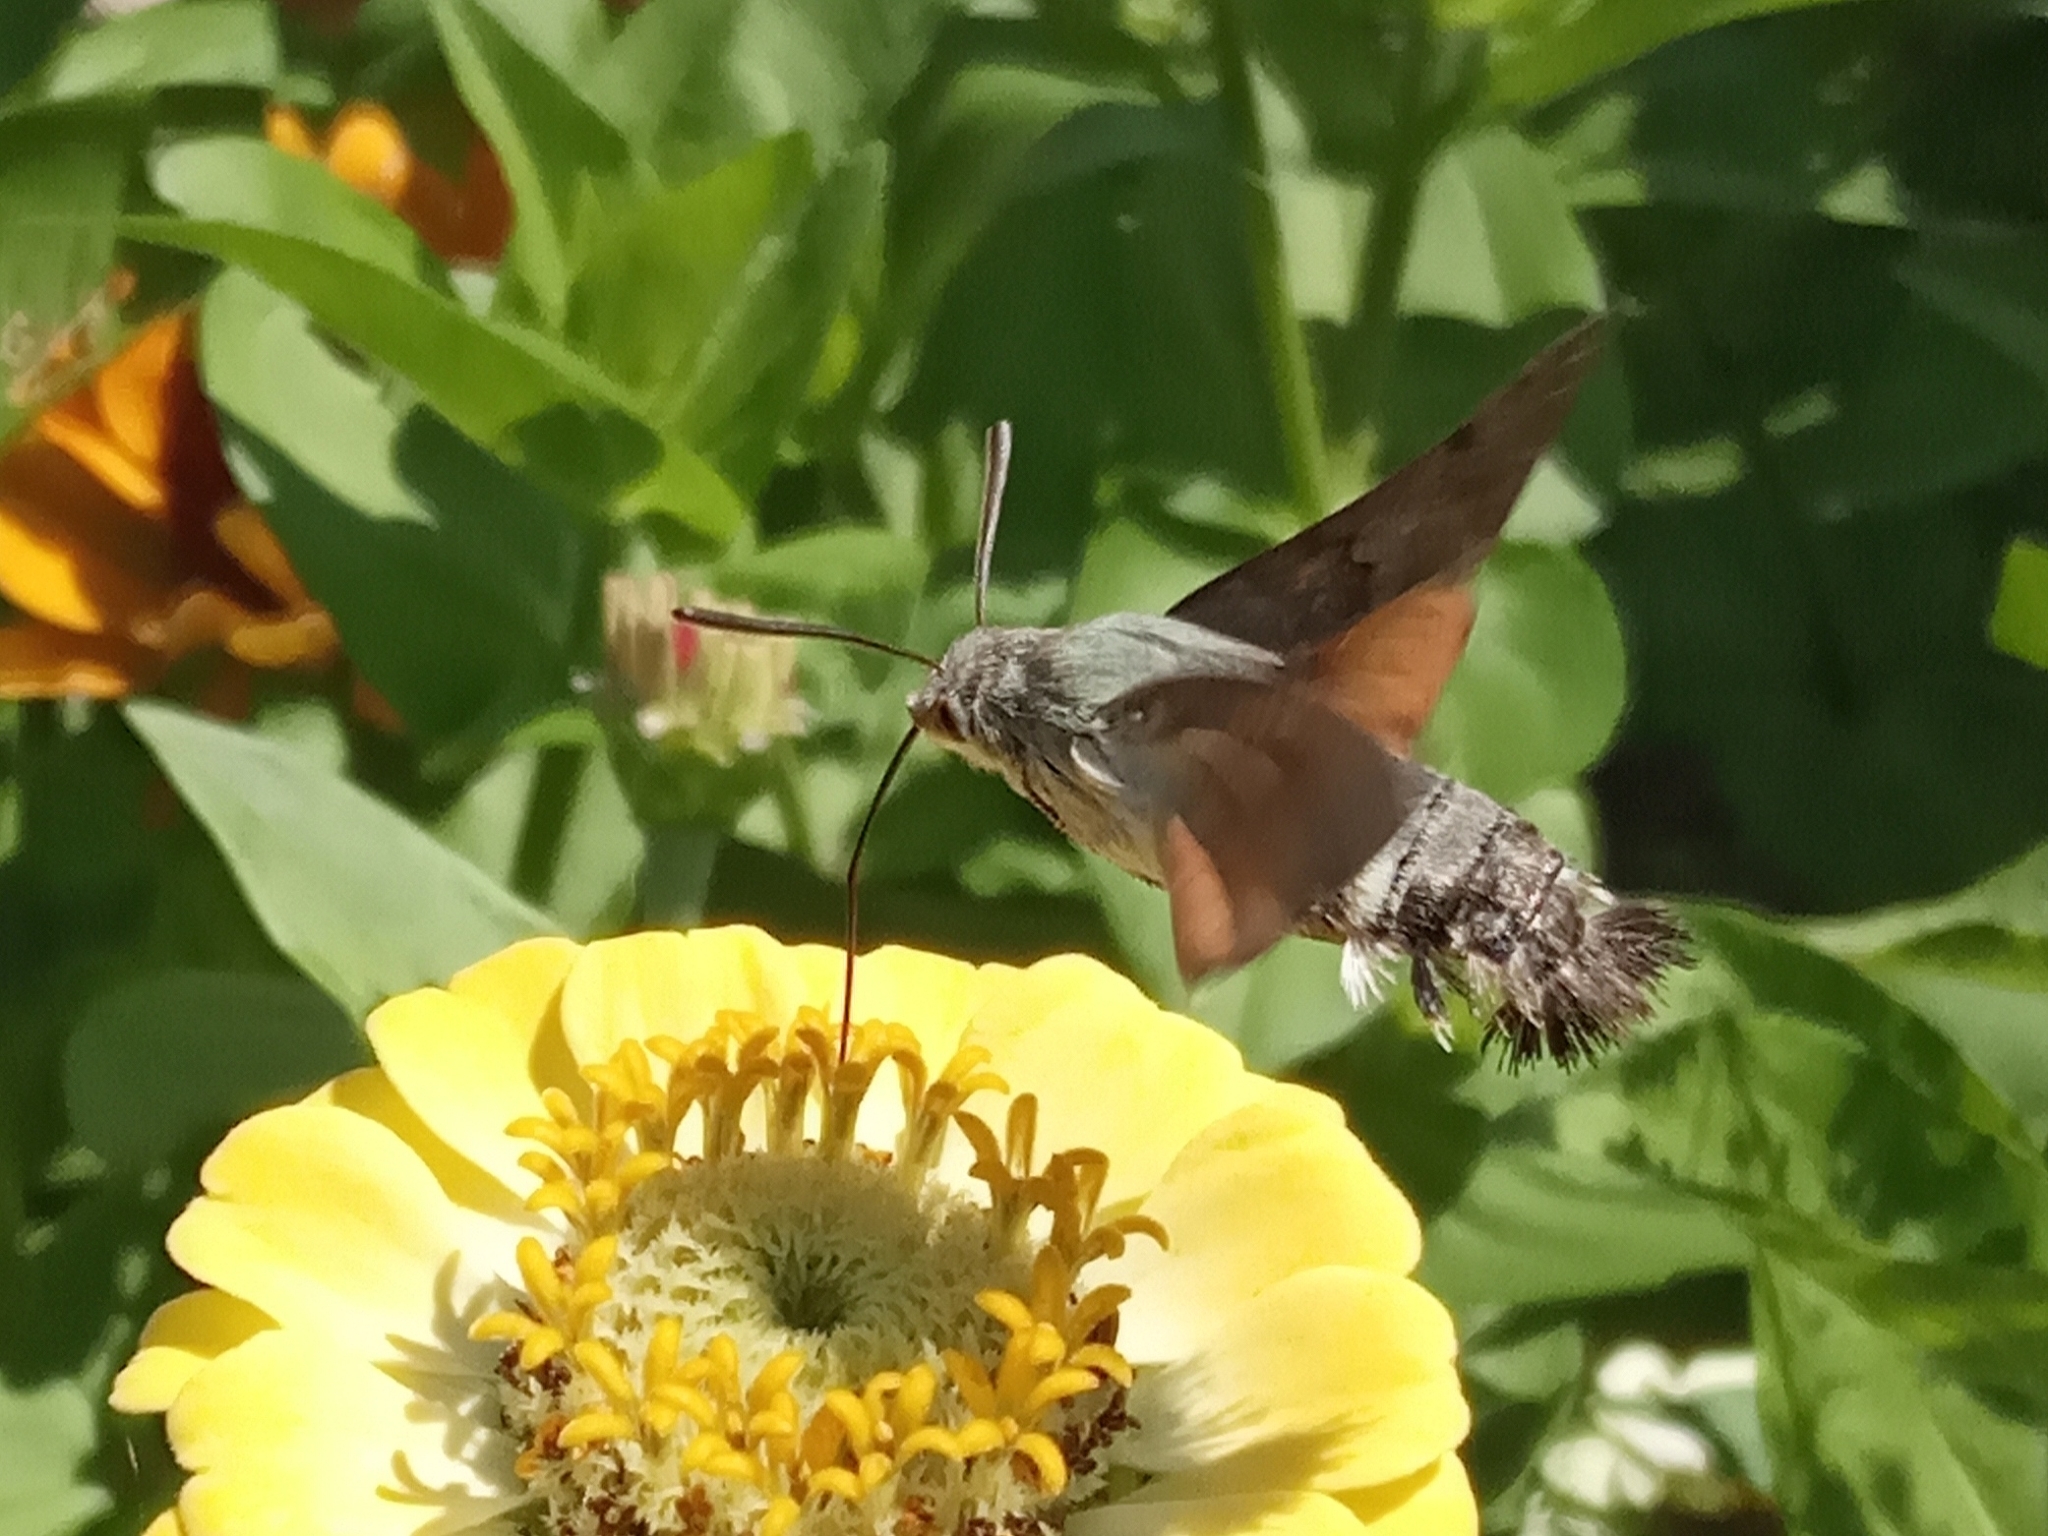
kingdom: Animalia
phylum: Arthropoda
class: Insecta
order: Lepidoptera
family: Sphingidae
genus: Macroglossum
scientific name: Macroglossum stellatarum
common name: Humming-bird hawk-moth
